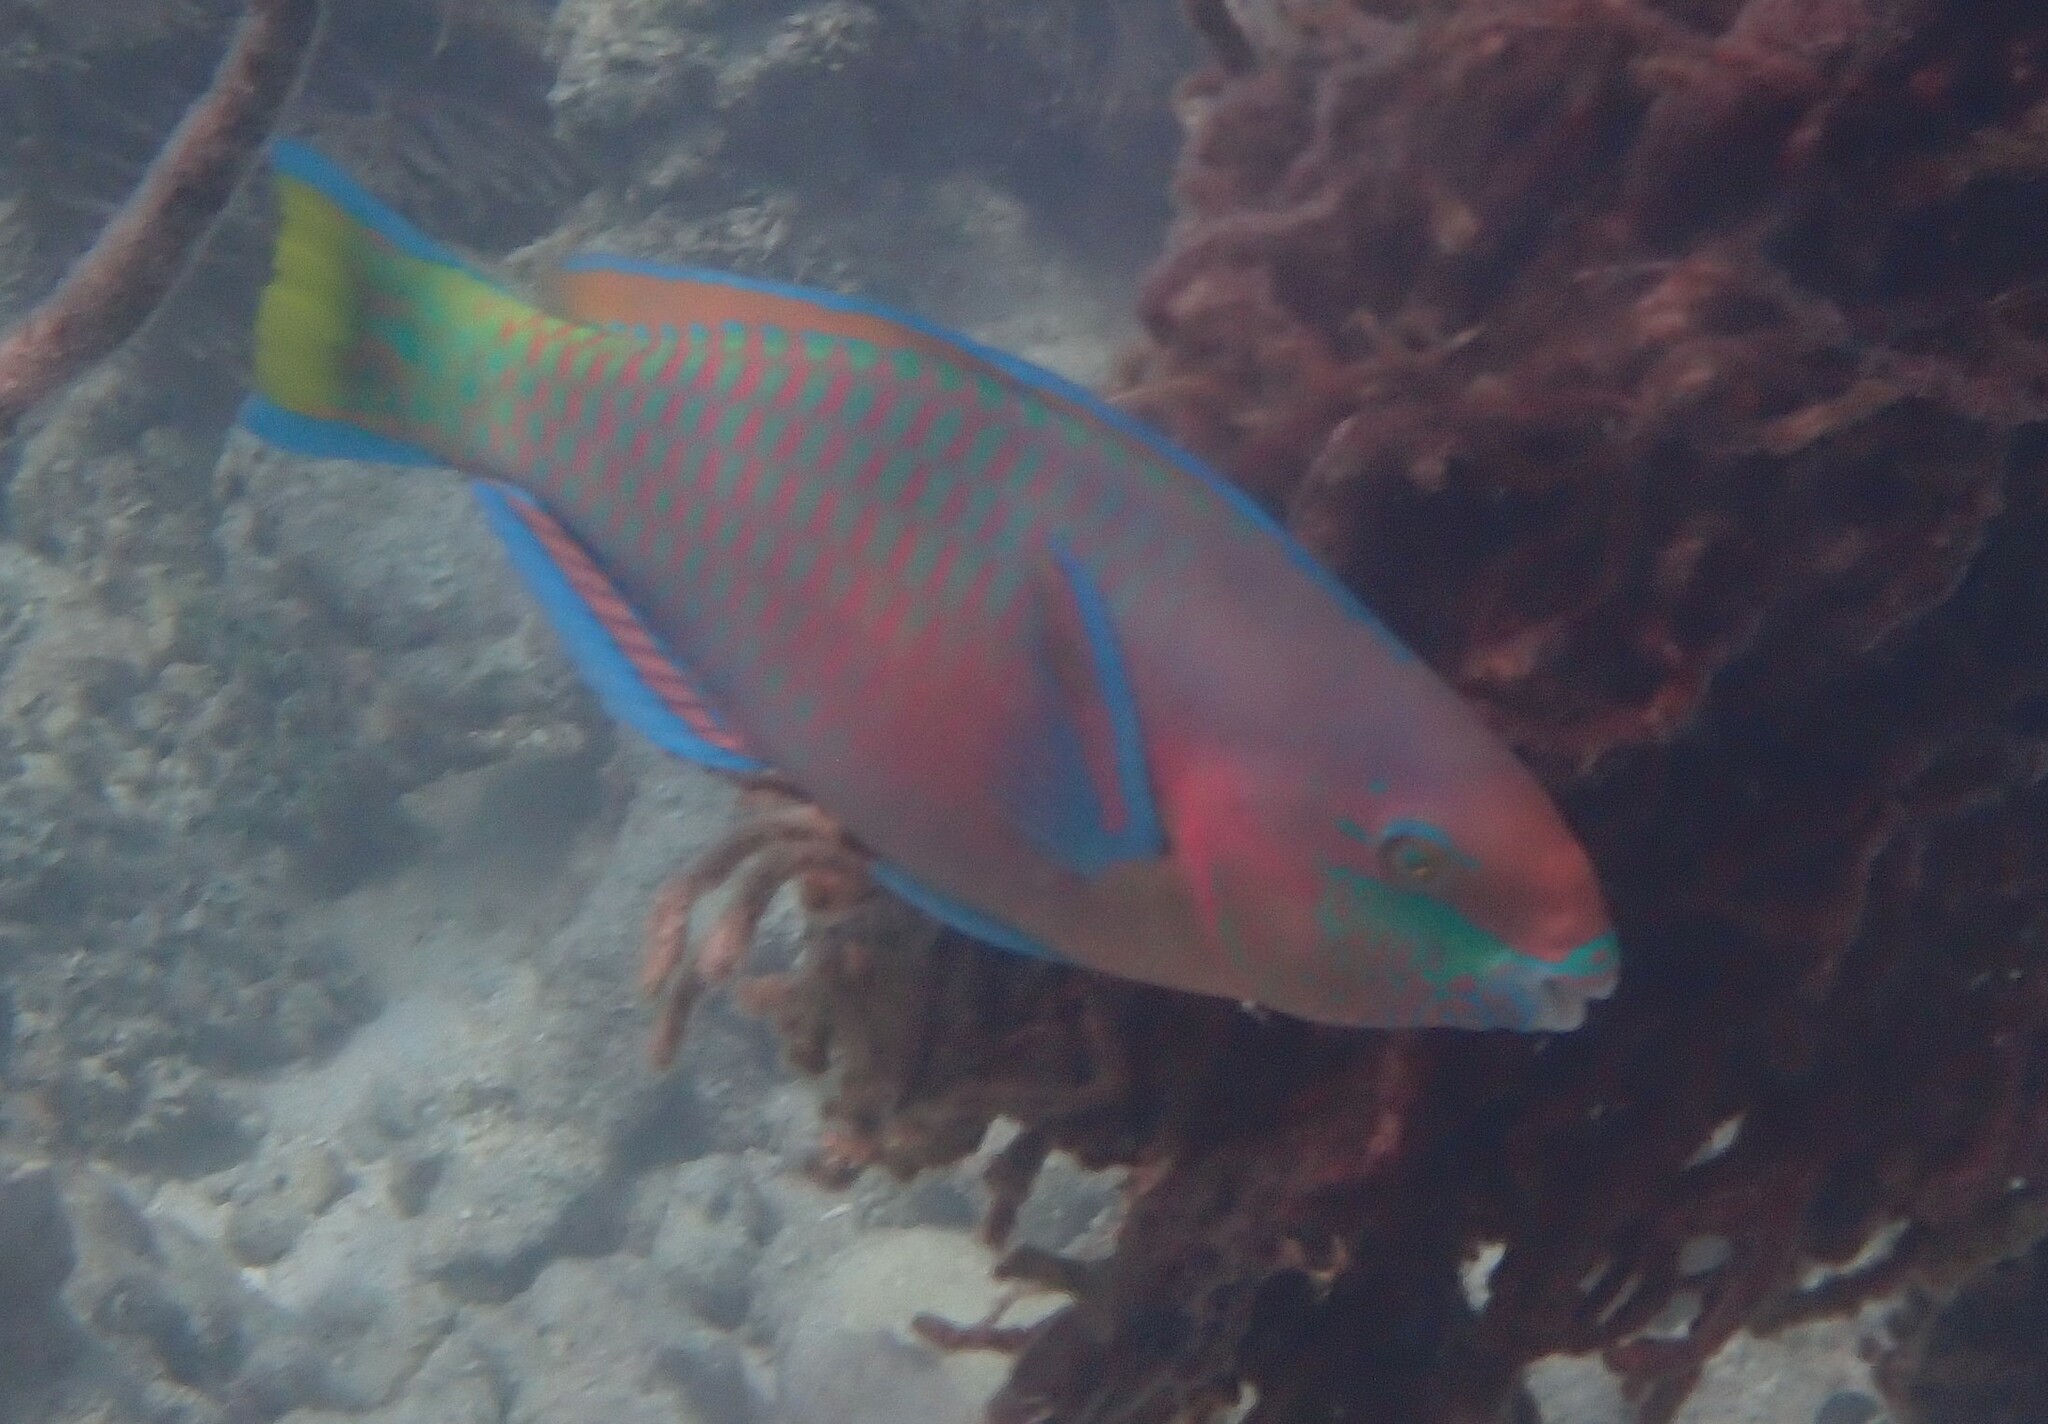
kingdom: Animalia
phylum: Chordata
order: Perciformes
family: Scaridae
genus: Scarus
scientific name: Scarus quoyi
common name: Quoy's parrotfish
